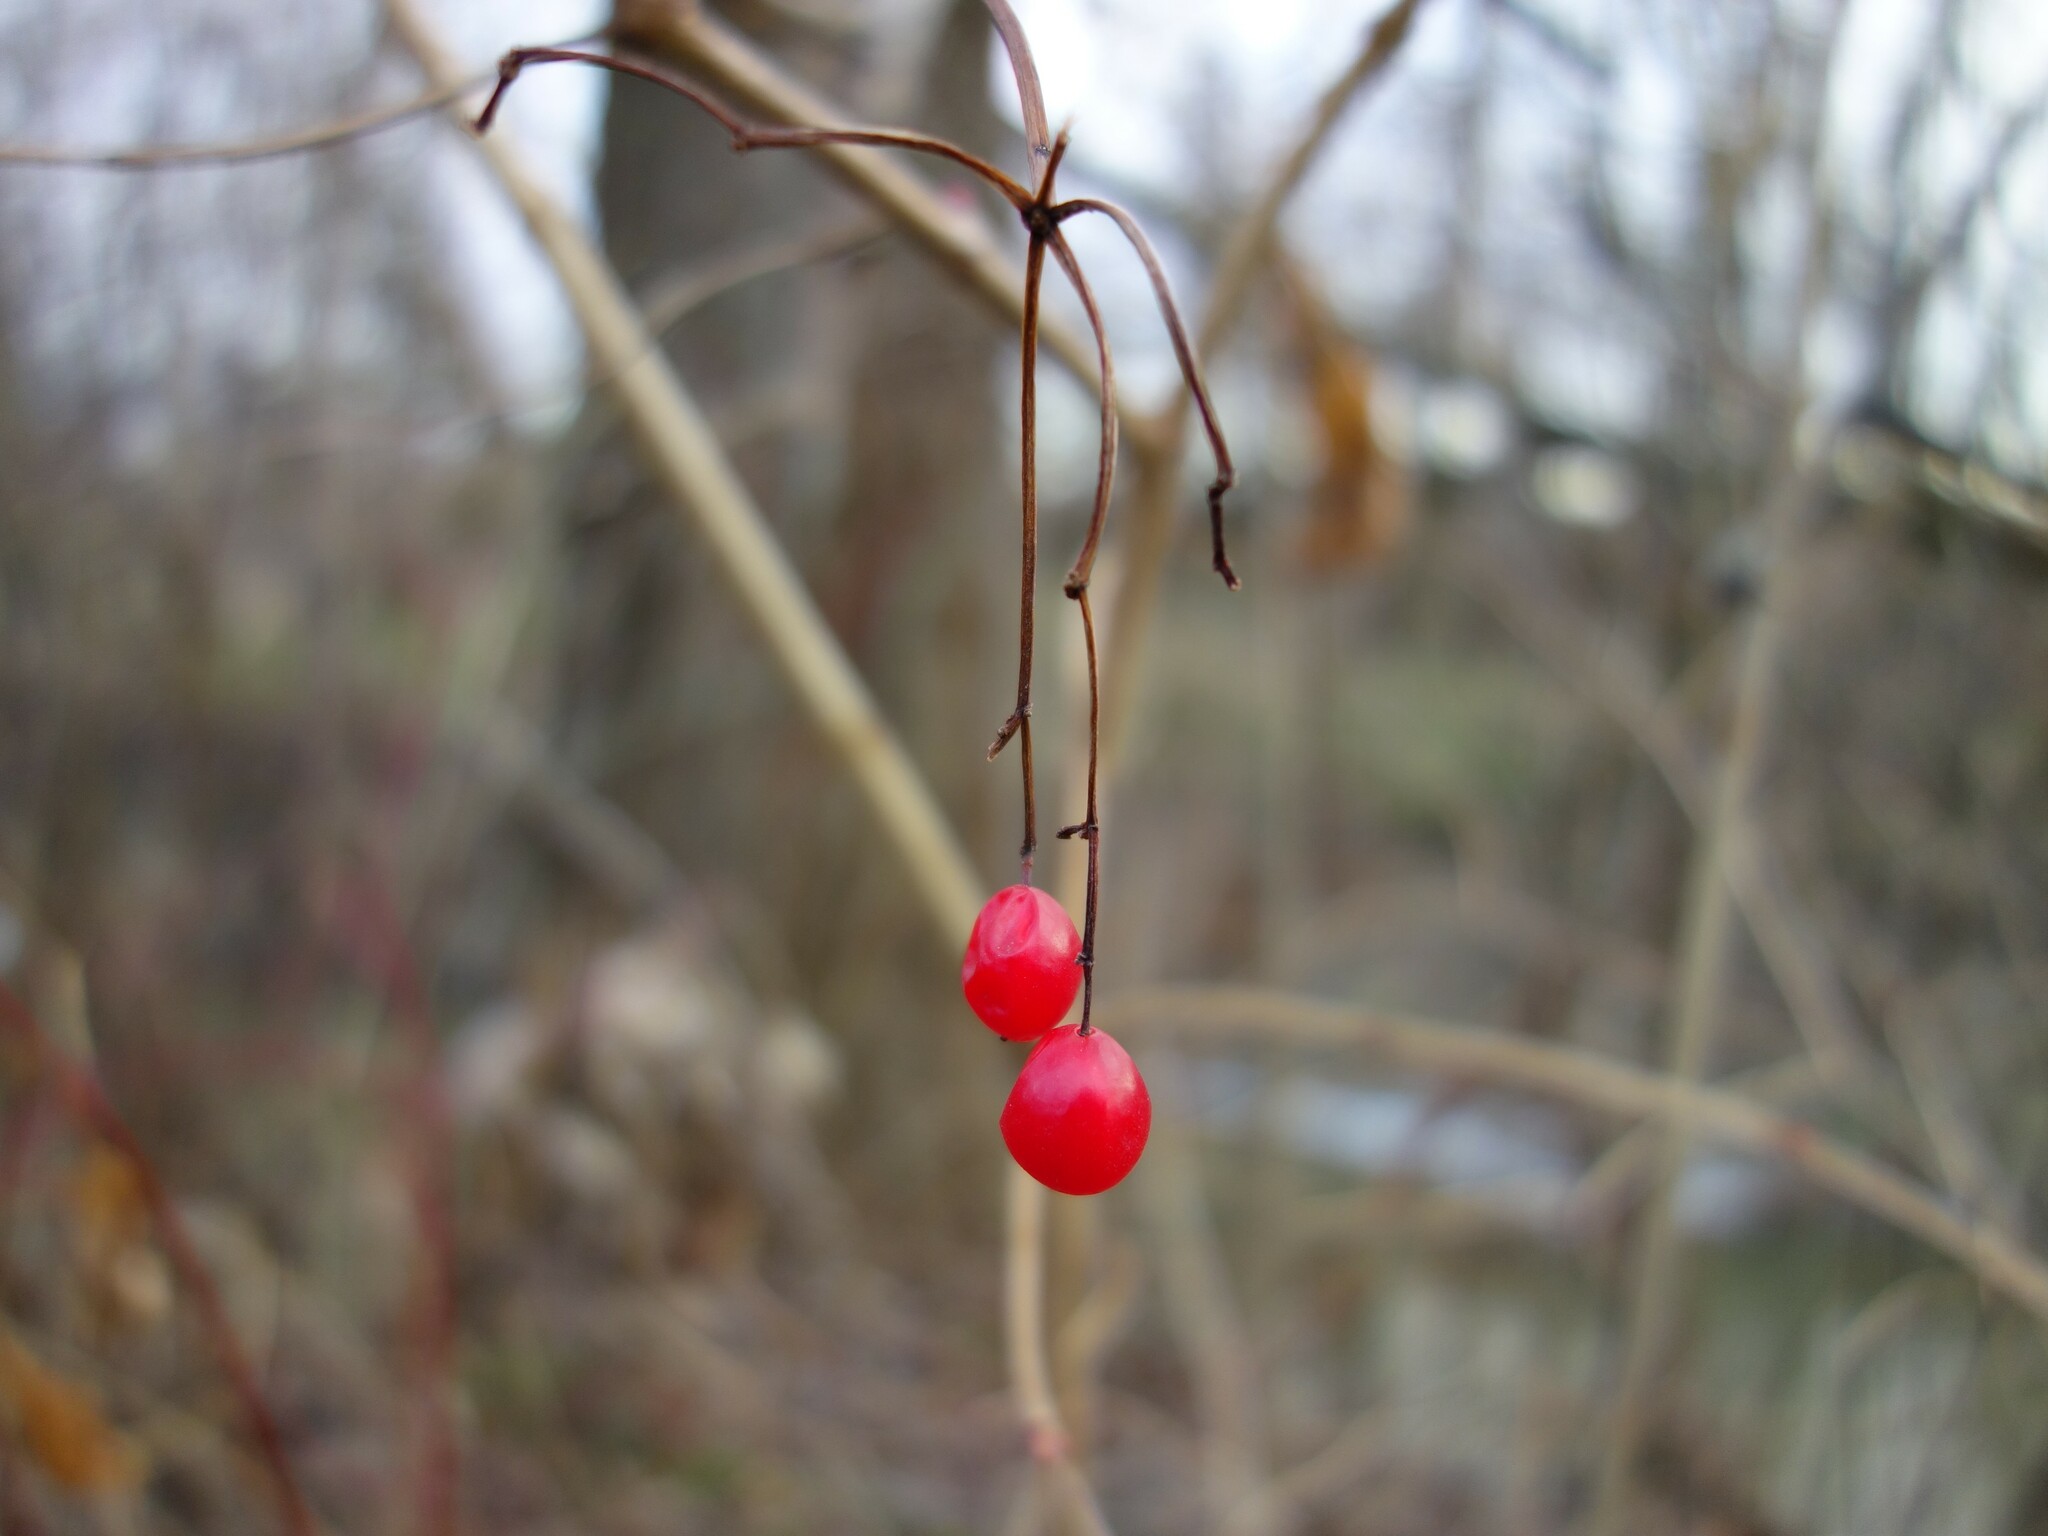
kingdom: Plantae
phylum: Tracheophyta
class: Magnoliopsida
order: Dipsacales
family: Viburnaceae
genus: Viburnum
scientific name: Viburnum opulus
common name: Guelder-rose
